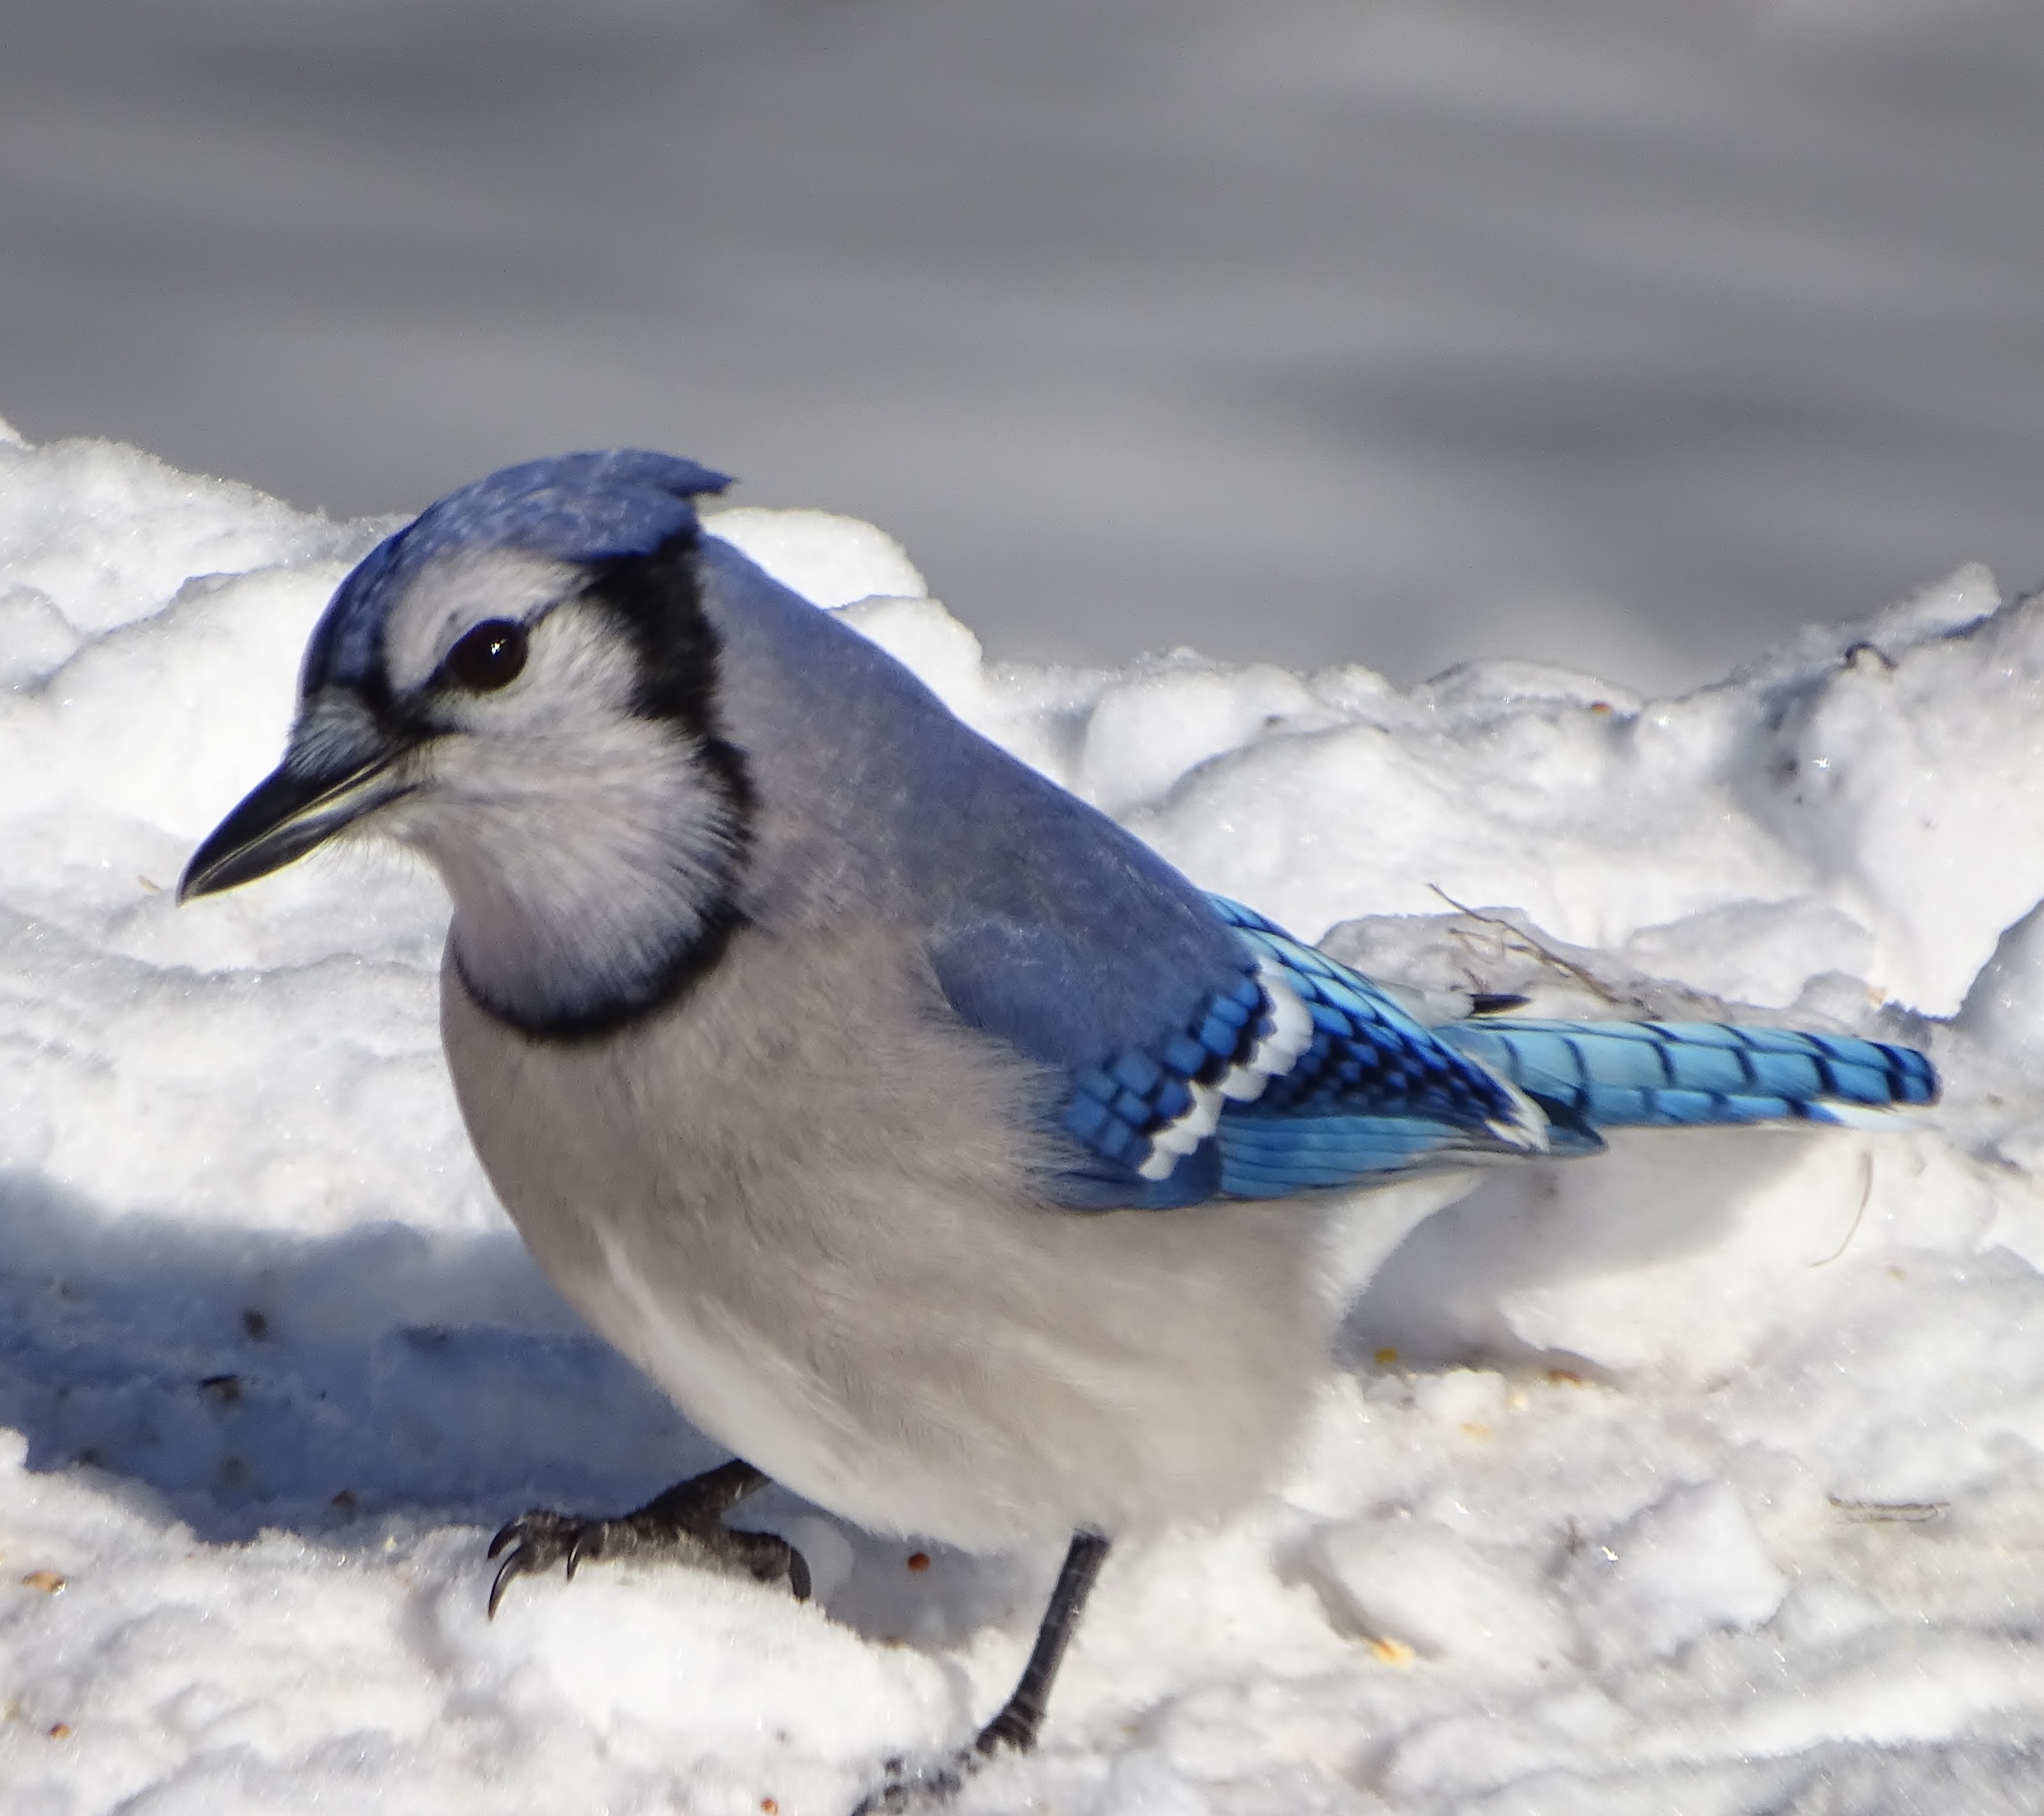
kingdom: Animalia
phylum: Chordata
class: Aves
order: Passeriformes
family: Corvidae
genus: Cyanocitta
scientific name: Cyanocitta cristata
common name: Blue jay
